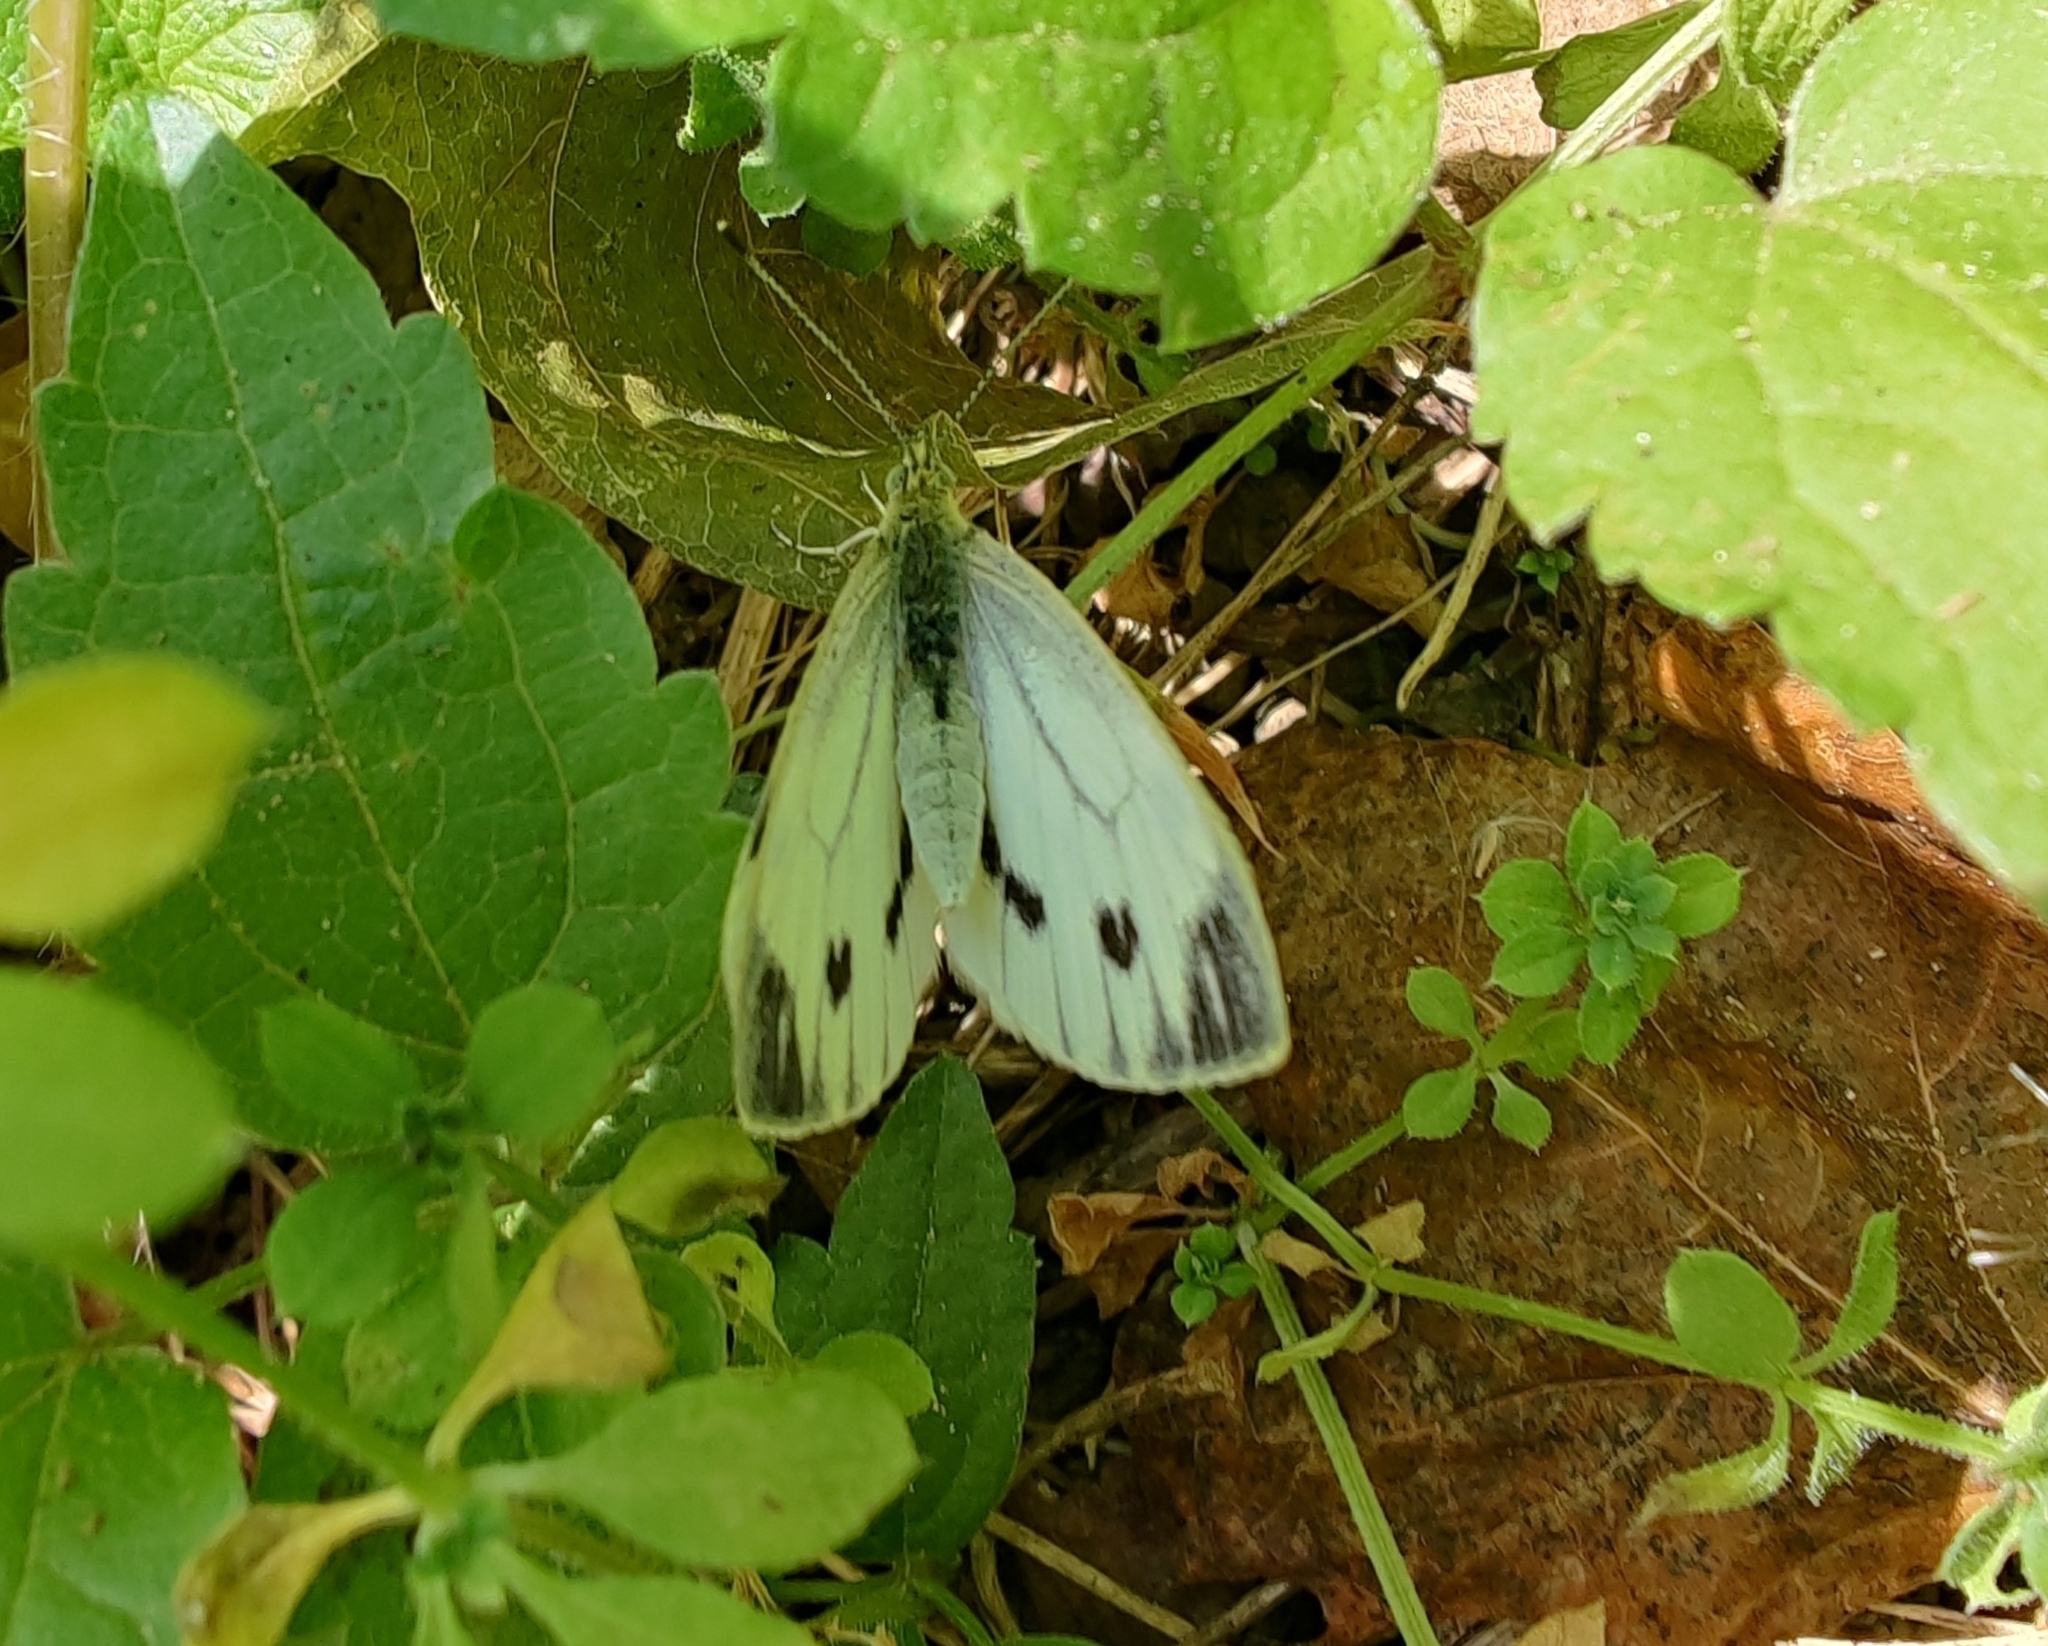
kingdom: Animalia
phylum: Arthropoda
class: Insecta
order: Lepidoptera
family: Pieridae
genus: Pieris
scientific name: Pieris napi
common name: Green-veined white
